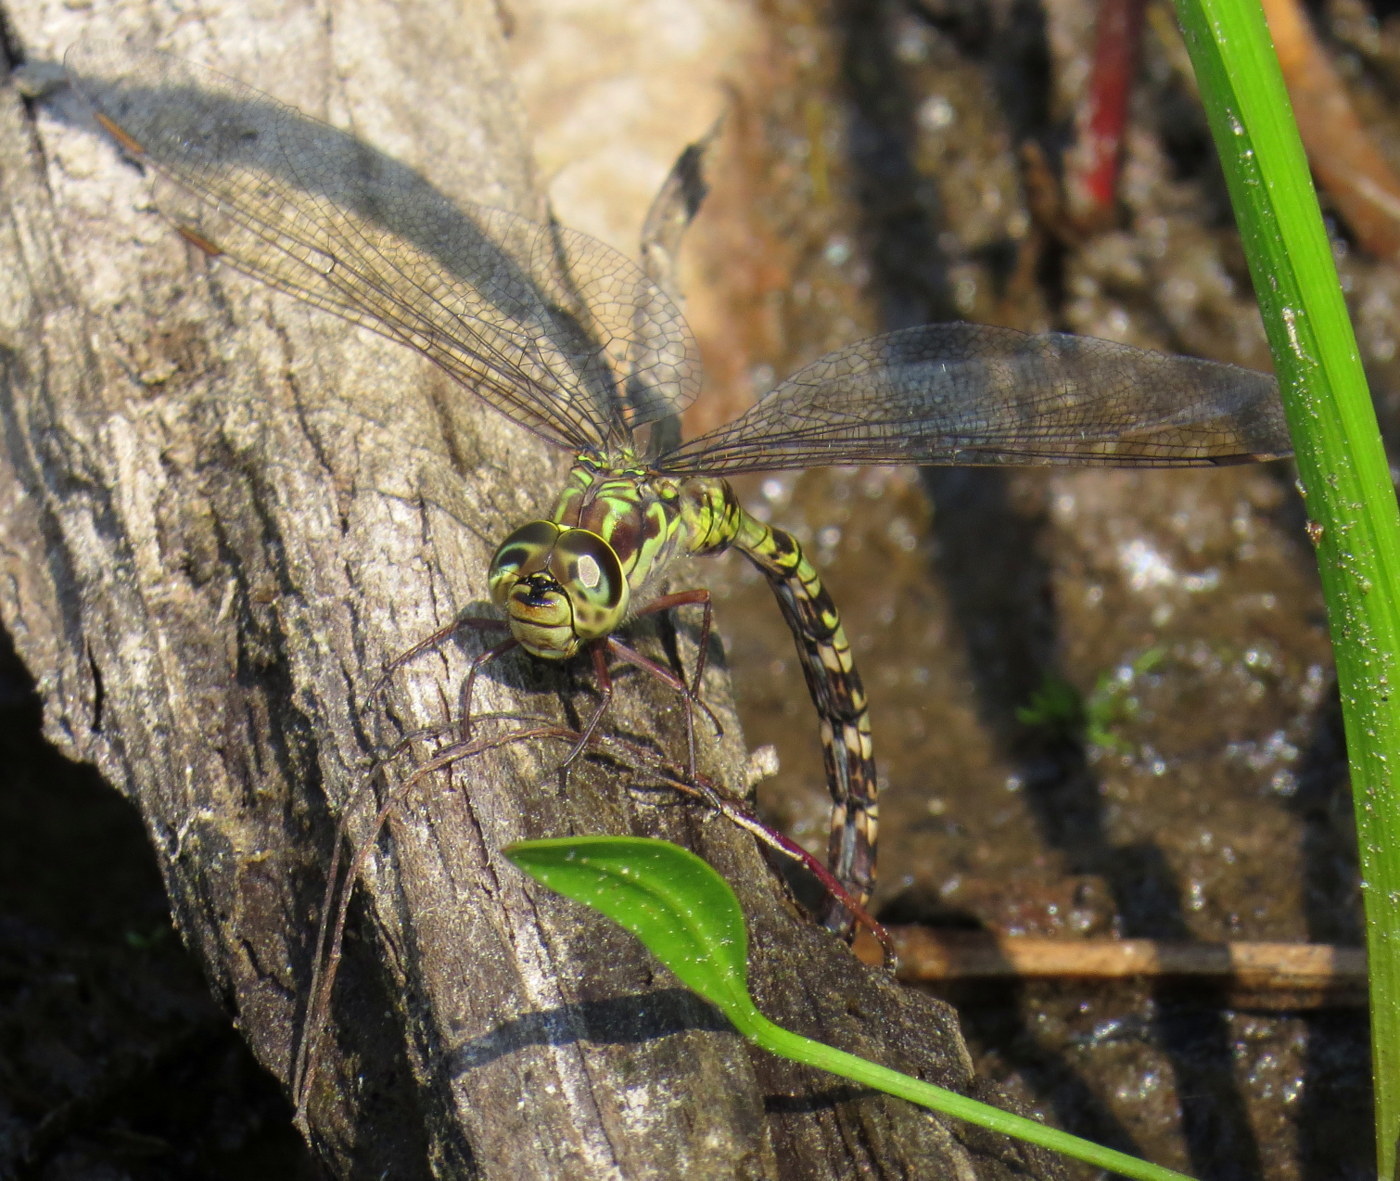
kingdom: Animalia
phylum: Arthropoda
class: Insecta
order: Odonata
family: Aeshnidae
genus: Aeshna
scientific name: Aeshna clepsydra
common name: Mottled darner
